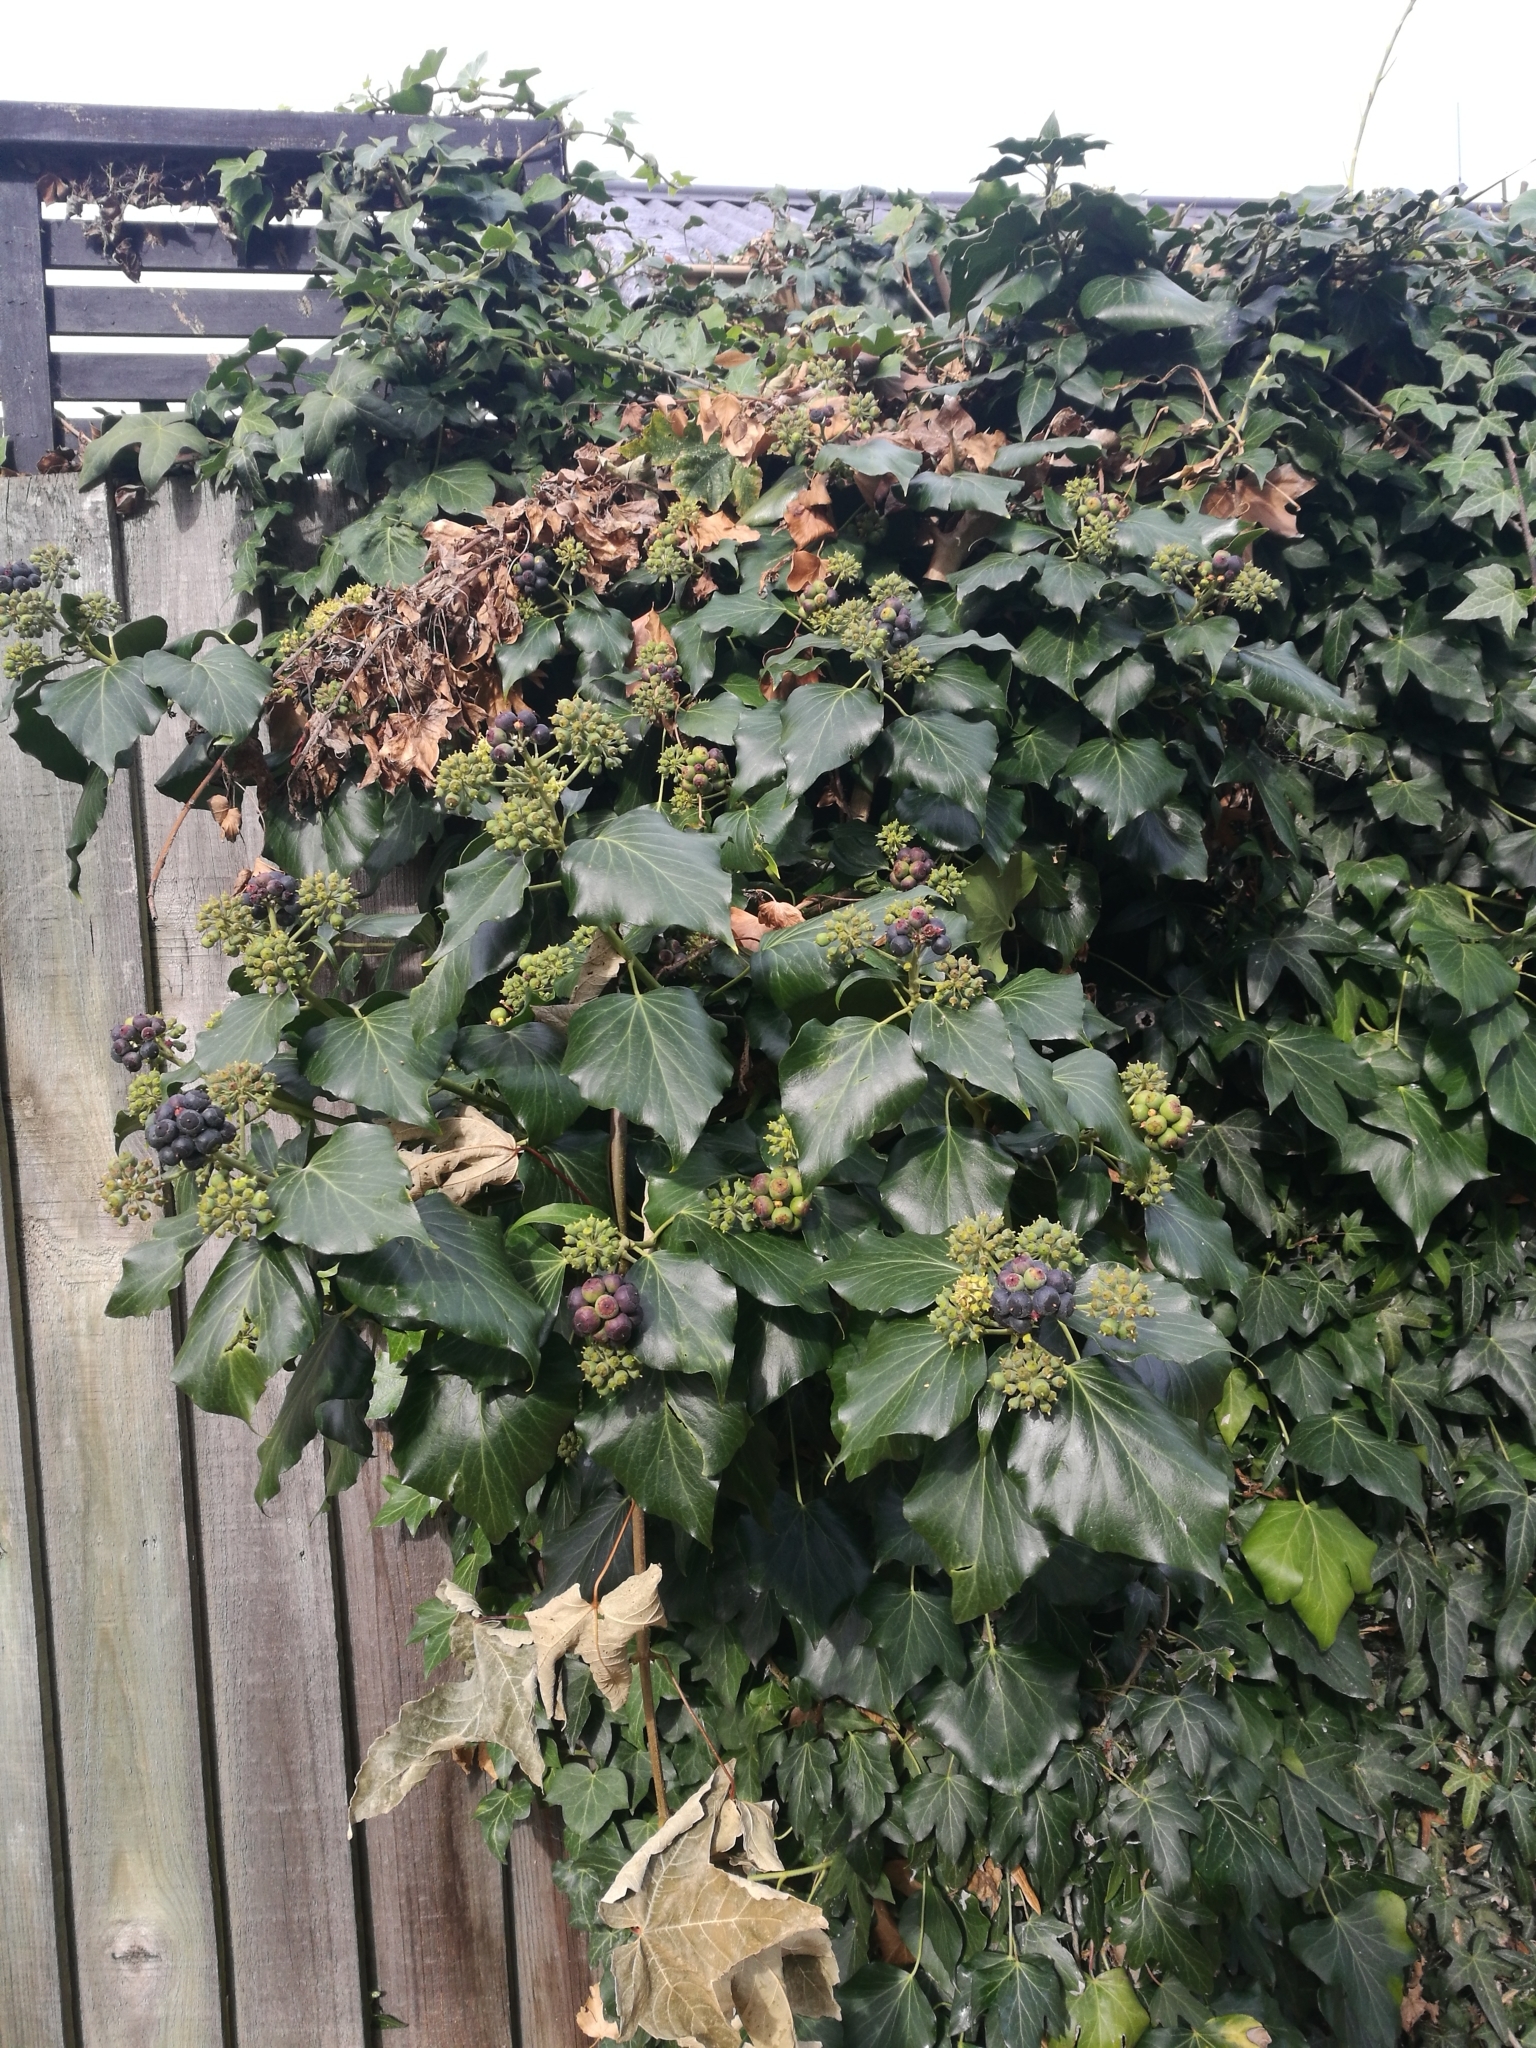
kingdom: Plantae
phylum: Tracheophyta
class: Magnoliopsida
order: Apiales
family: Araliaceae
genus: Hedera
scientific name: Hedera helix
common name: Ivy
